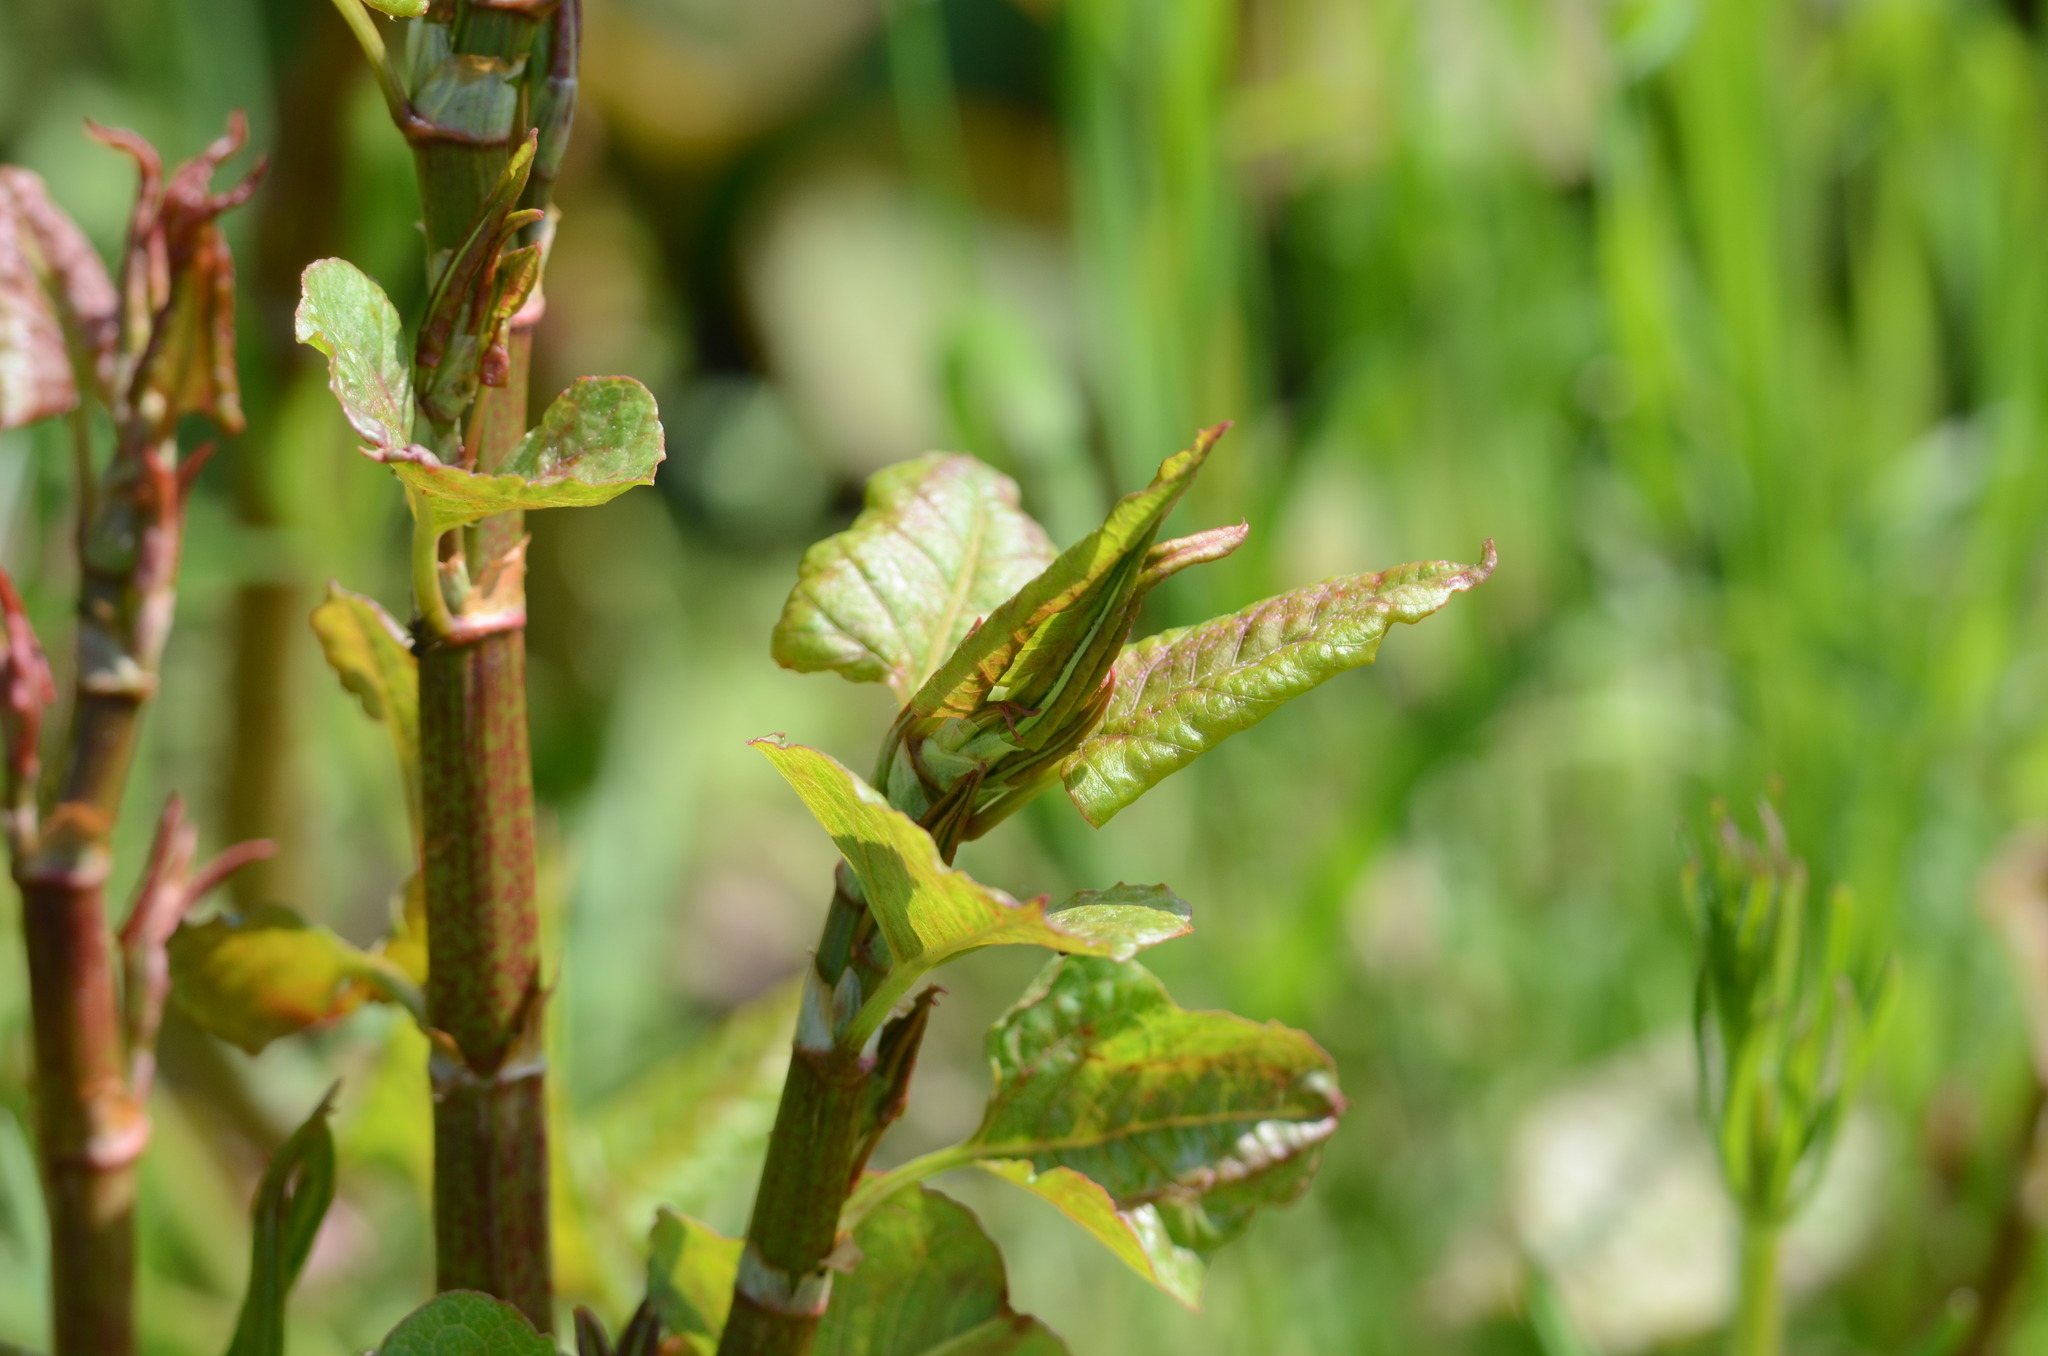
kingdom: Plantae
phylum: Tracheophyta
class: Magnoliopsida
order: Caryophyllales
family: Polygonaceae
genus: Reynoutria
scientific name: Reynoutria
